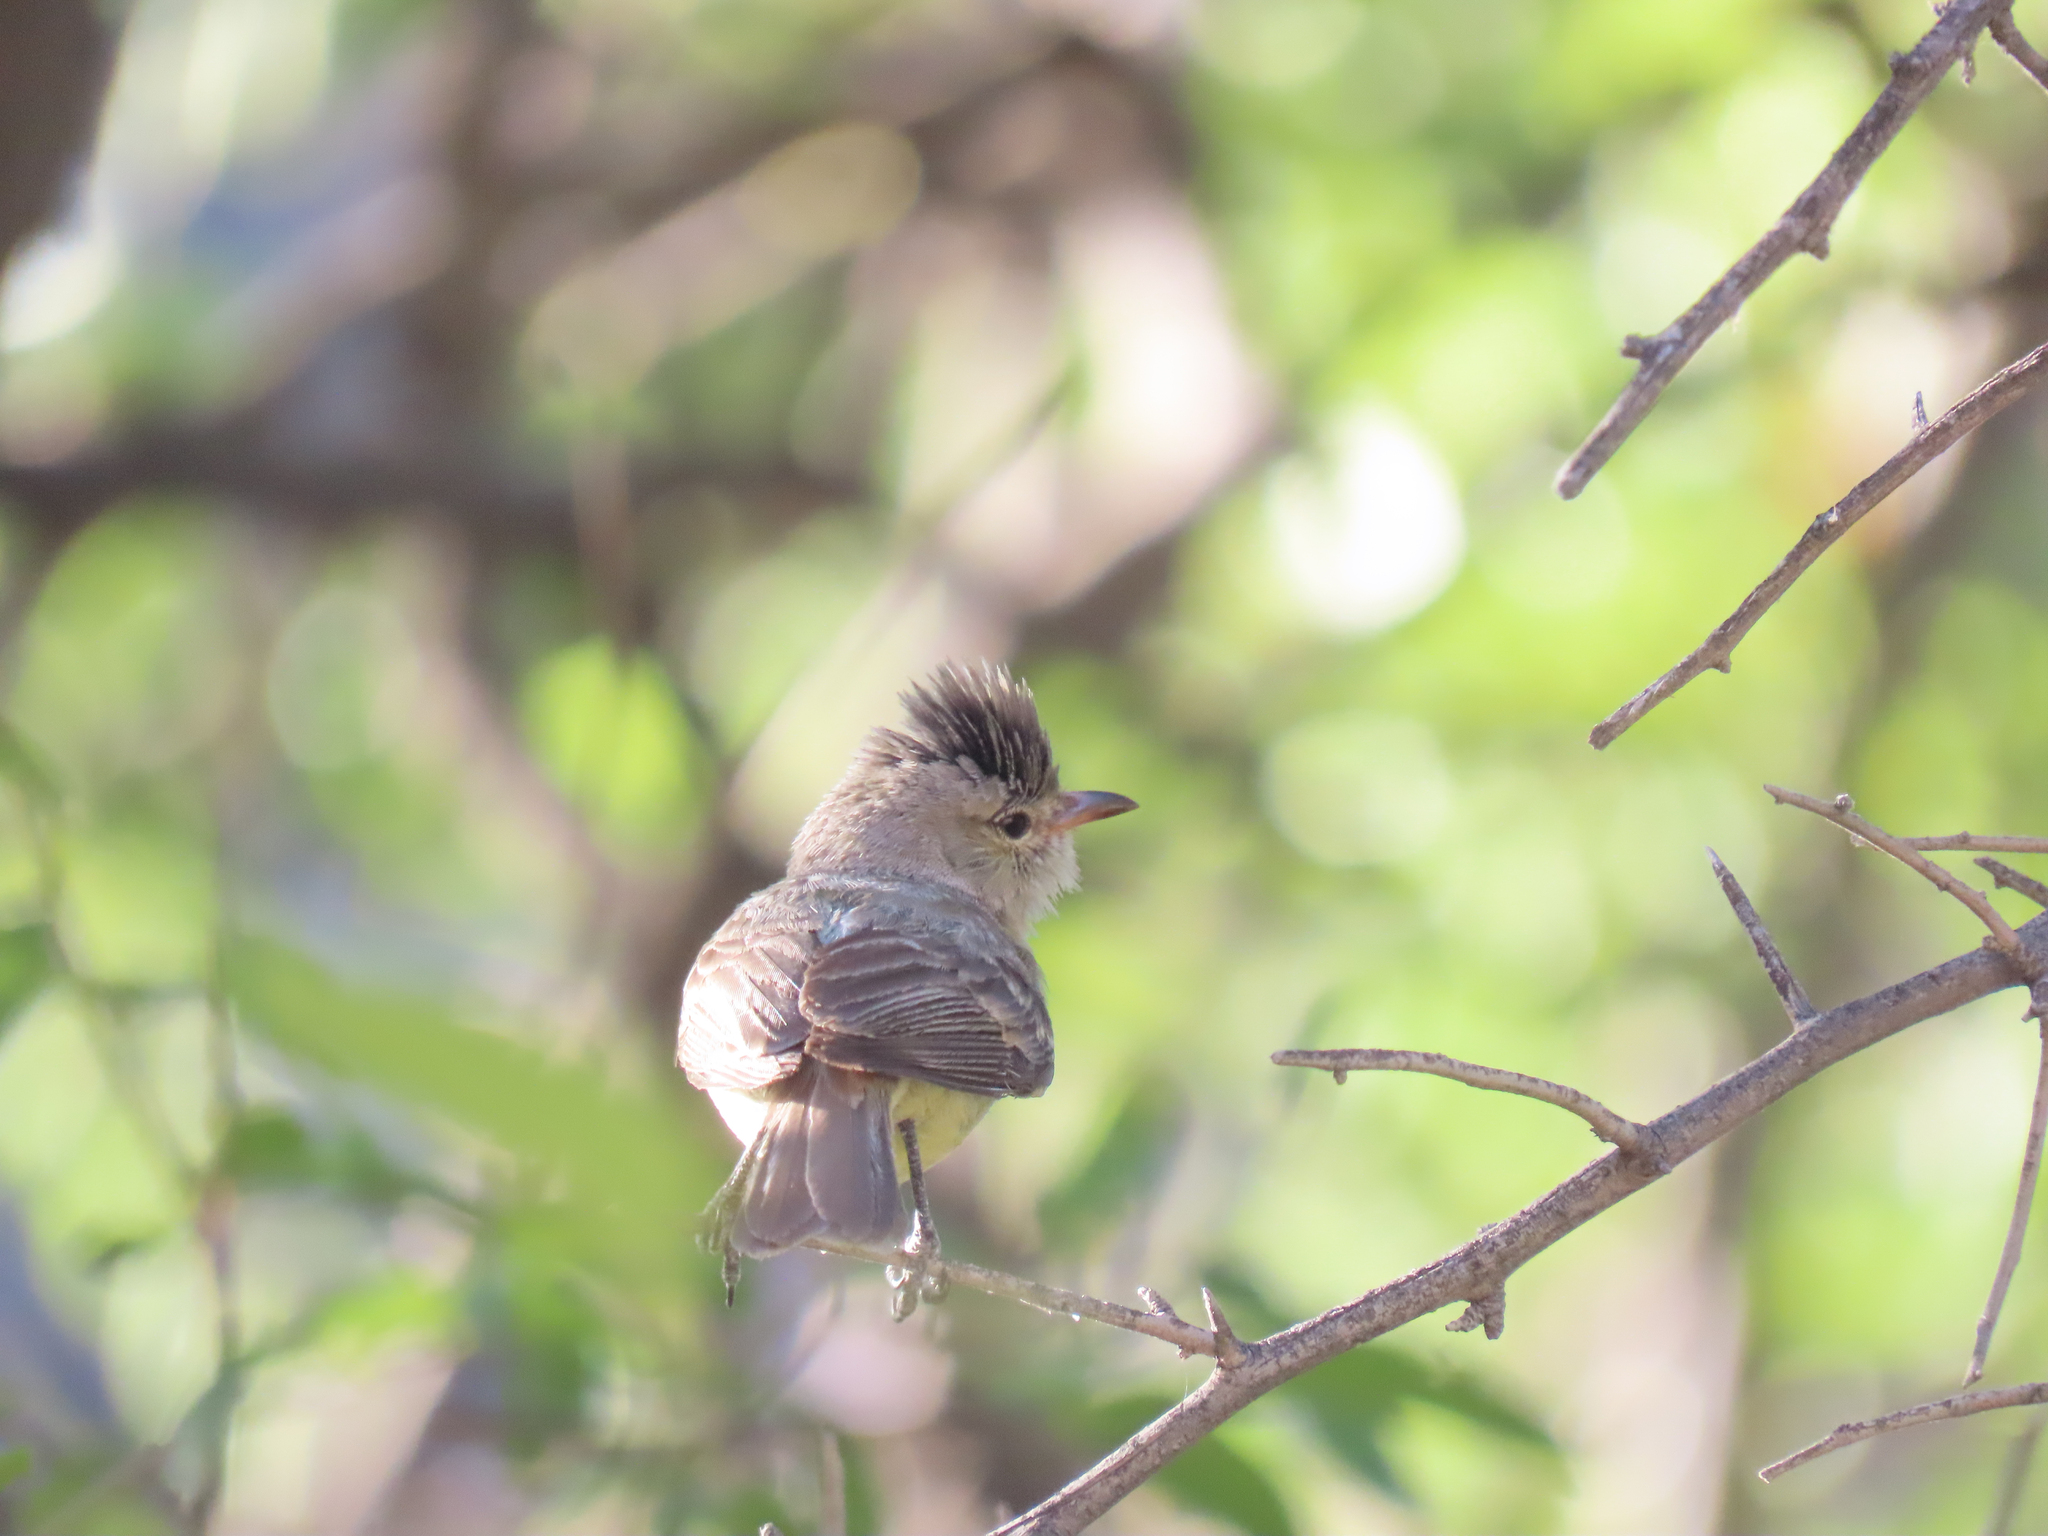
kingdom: Animalia
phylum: Chordata
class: Aves
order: Passeriformes
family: Tyrannidae
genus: Camptostoma
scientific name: Camptostoma imberbe
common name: Northern beardless-tyrannulet
